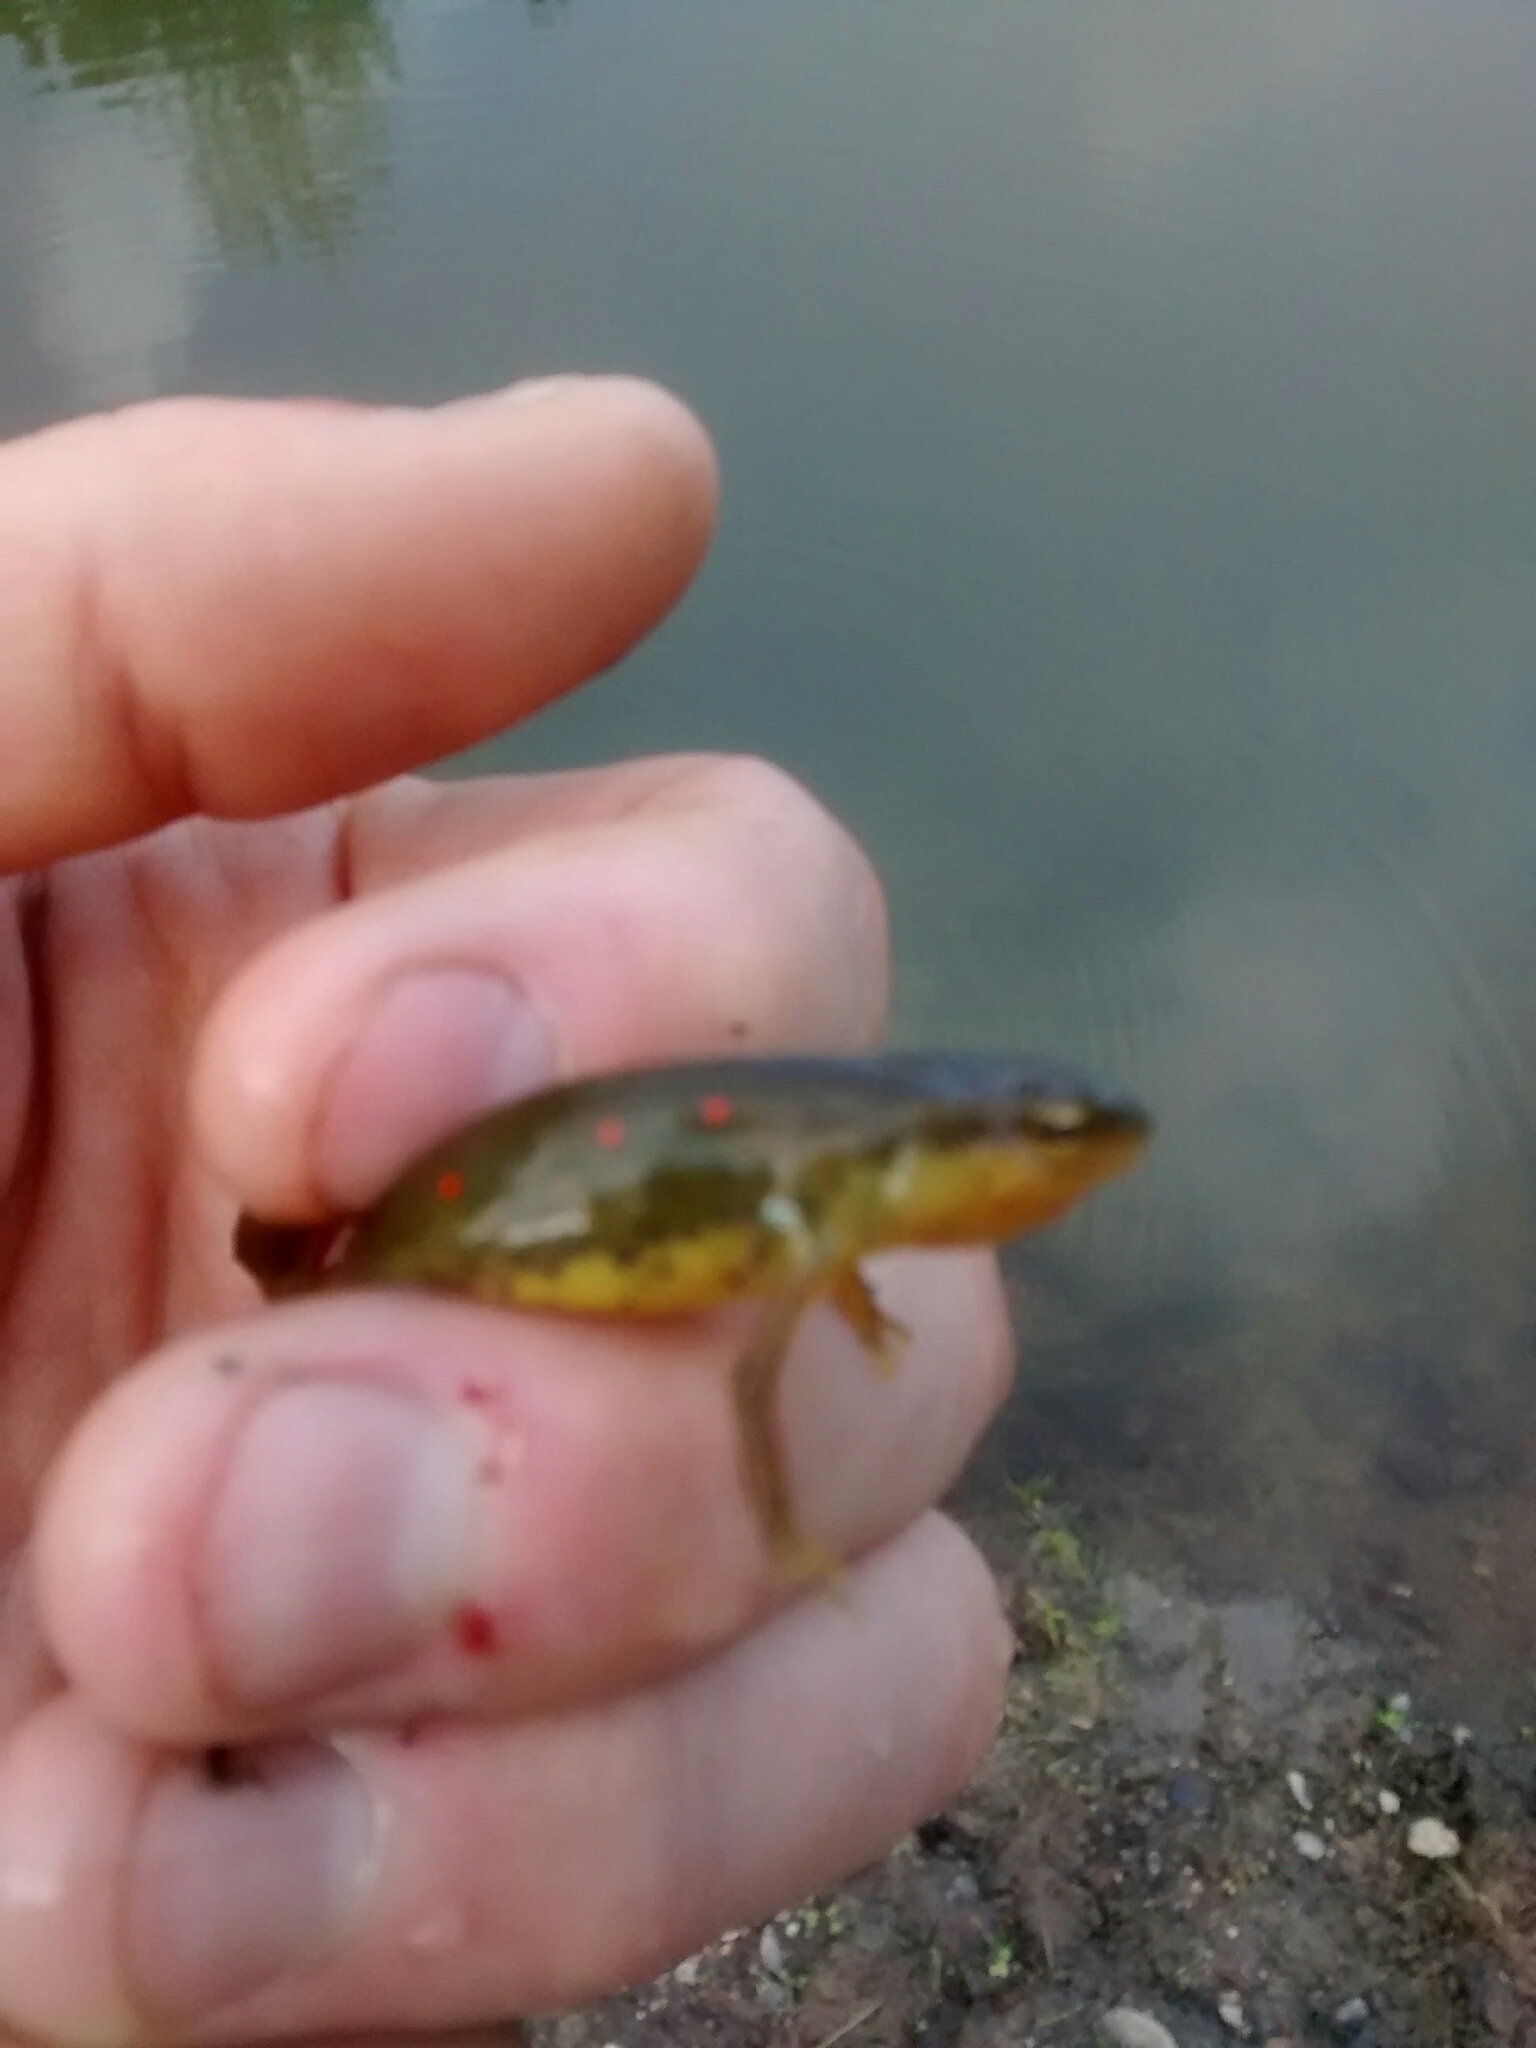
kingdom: Animalia
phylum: Chordata
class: Amphibia
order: Caudata
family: Salamandridae
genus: Notophthalmus
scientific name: Notophthalmus viridescens
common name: Eastern newt
